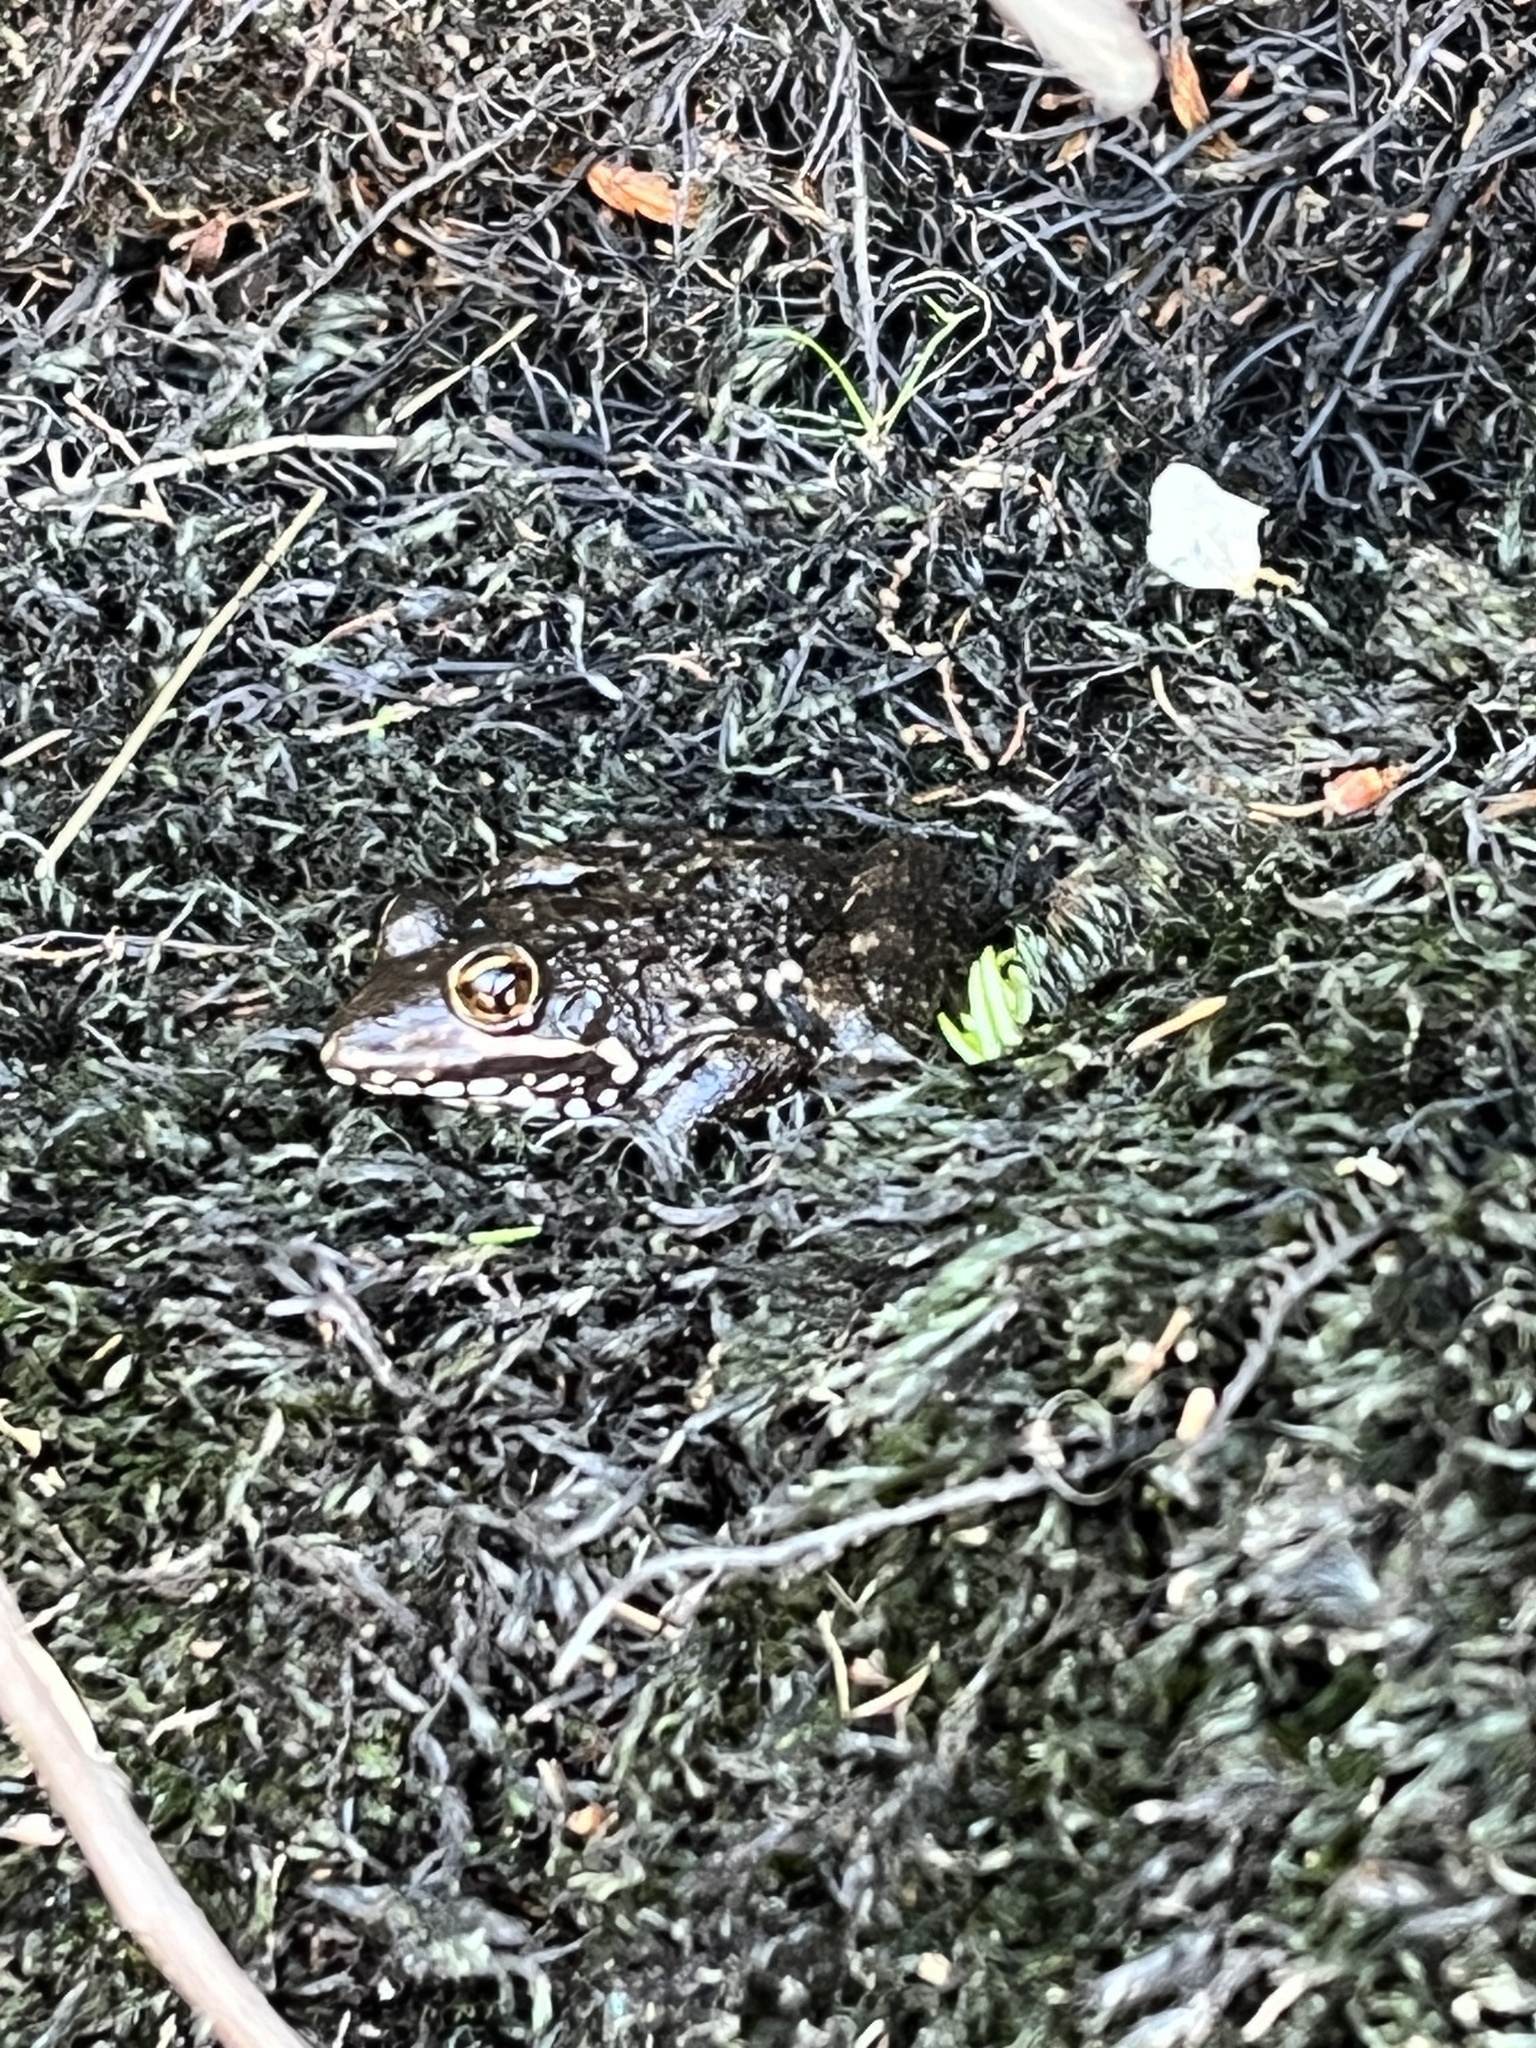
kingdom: Animalia
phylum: Chordata
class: Amphibia
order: Anura
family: Pyxicephalidae
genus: Amietia
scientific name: Amietia fuscigula
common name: Cape rana
